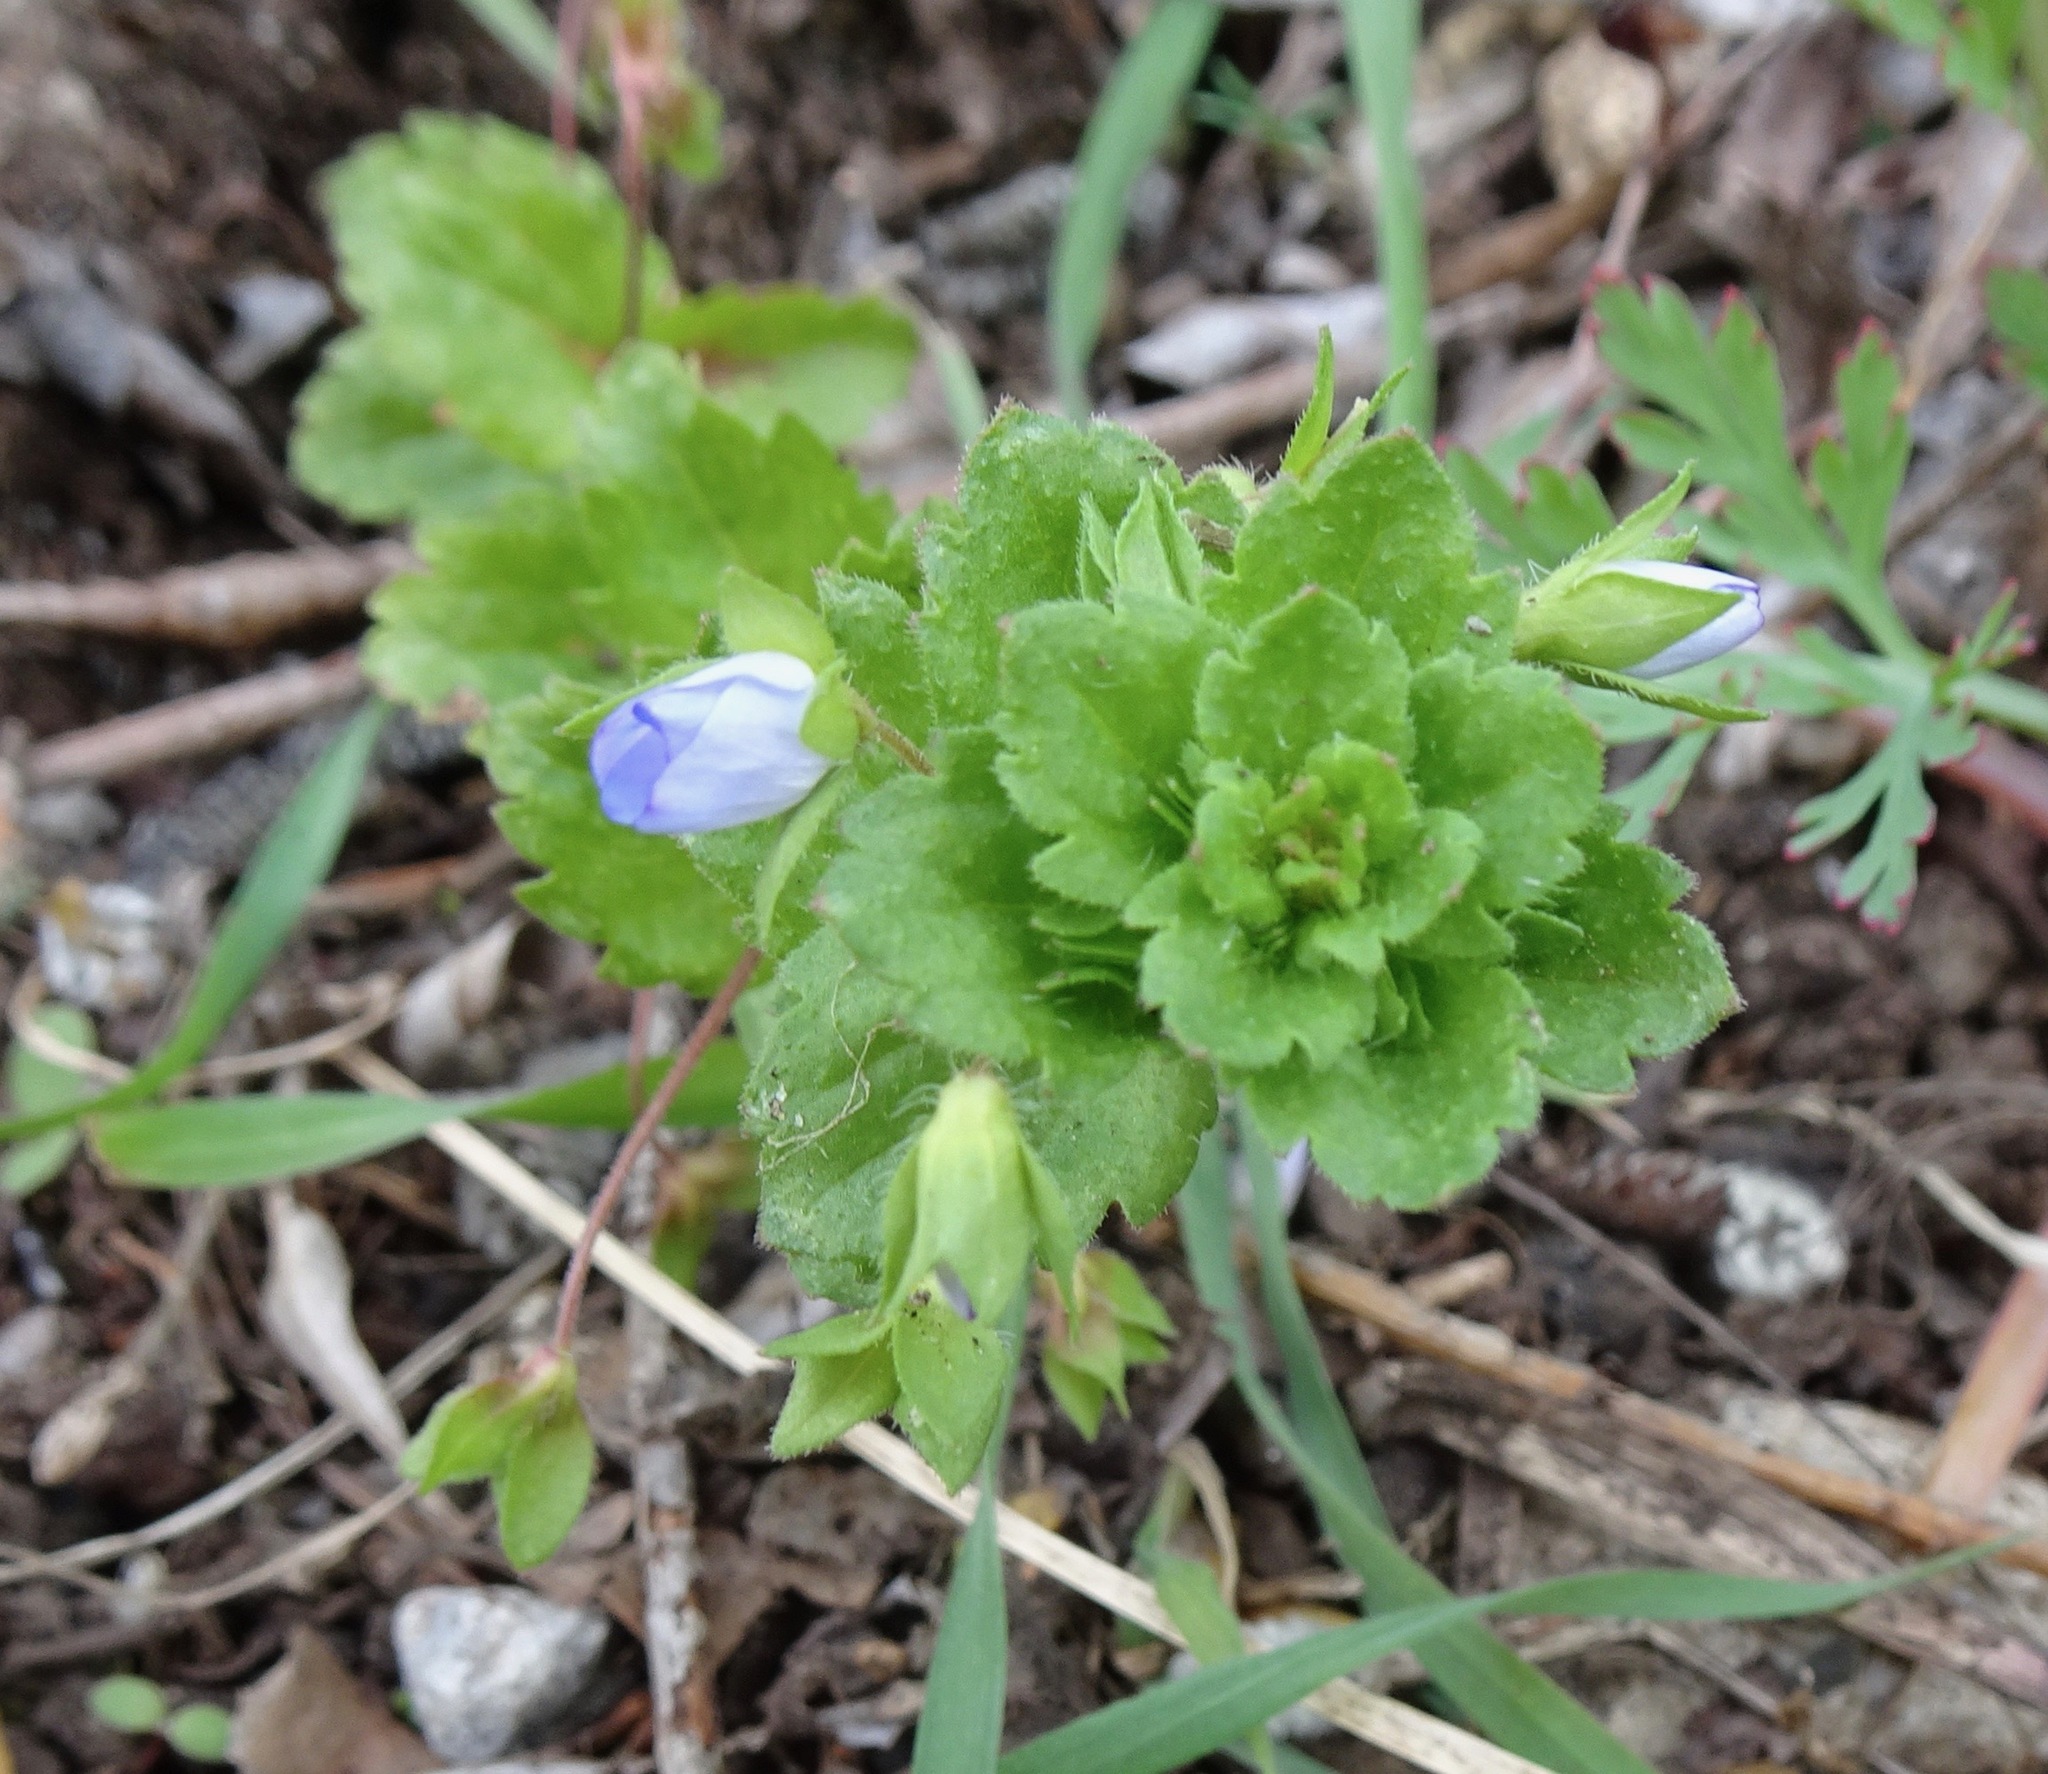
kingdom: Plantae
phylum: Tracheophyta
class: Magnoliopsida
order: Lamiales
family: Plantaginaceae
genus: Veronica
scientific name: Veronica persica
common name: Common field-speedwell
